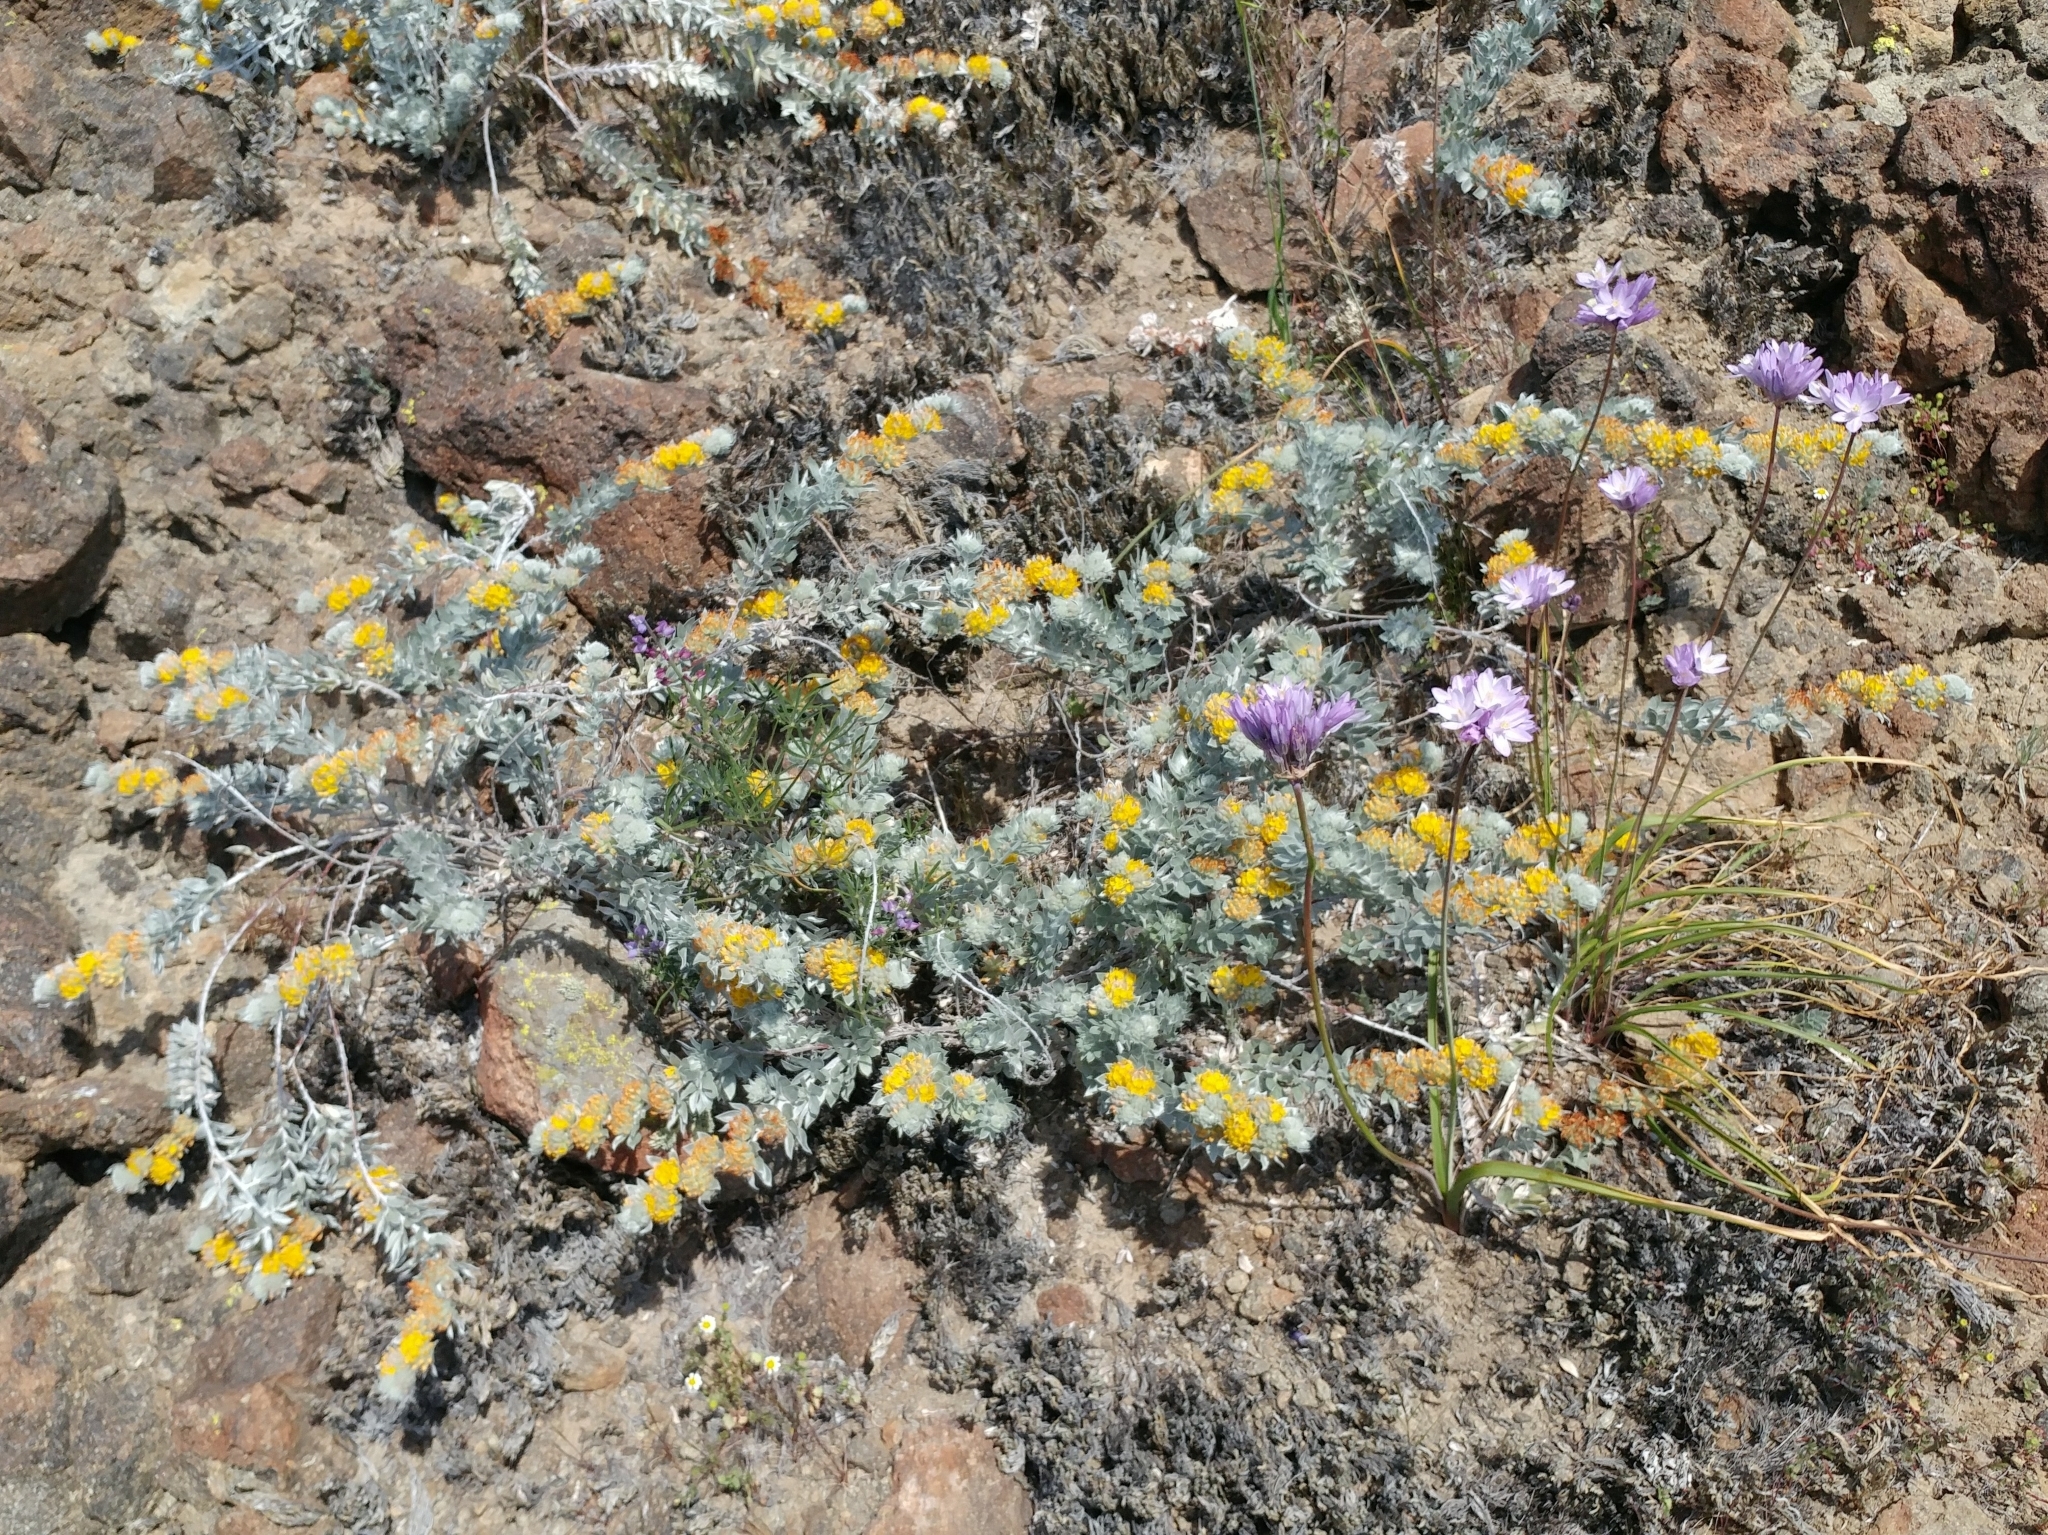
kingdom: Plantae
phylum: Tracheophyta
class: Magnoliopsida
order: Fabales
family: Fabaceae
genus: Acmispon
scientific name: Acmispon argophyllus
